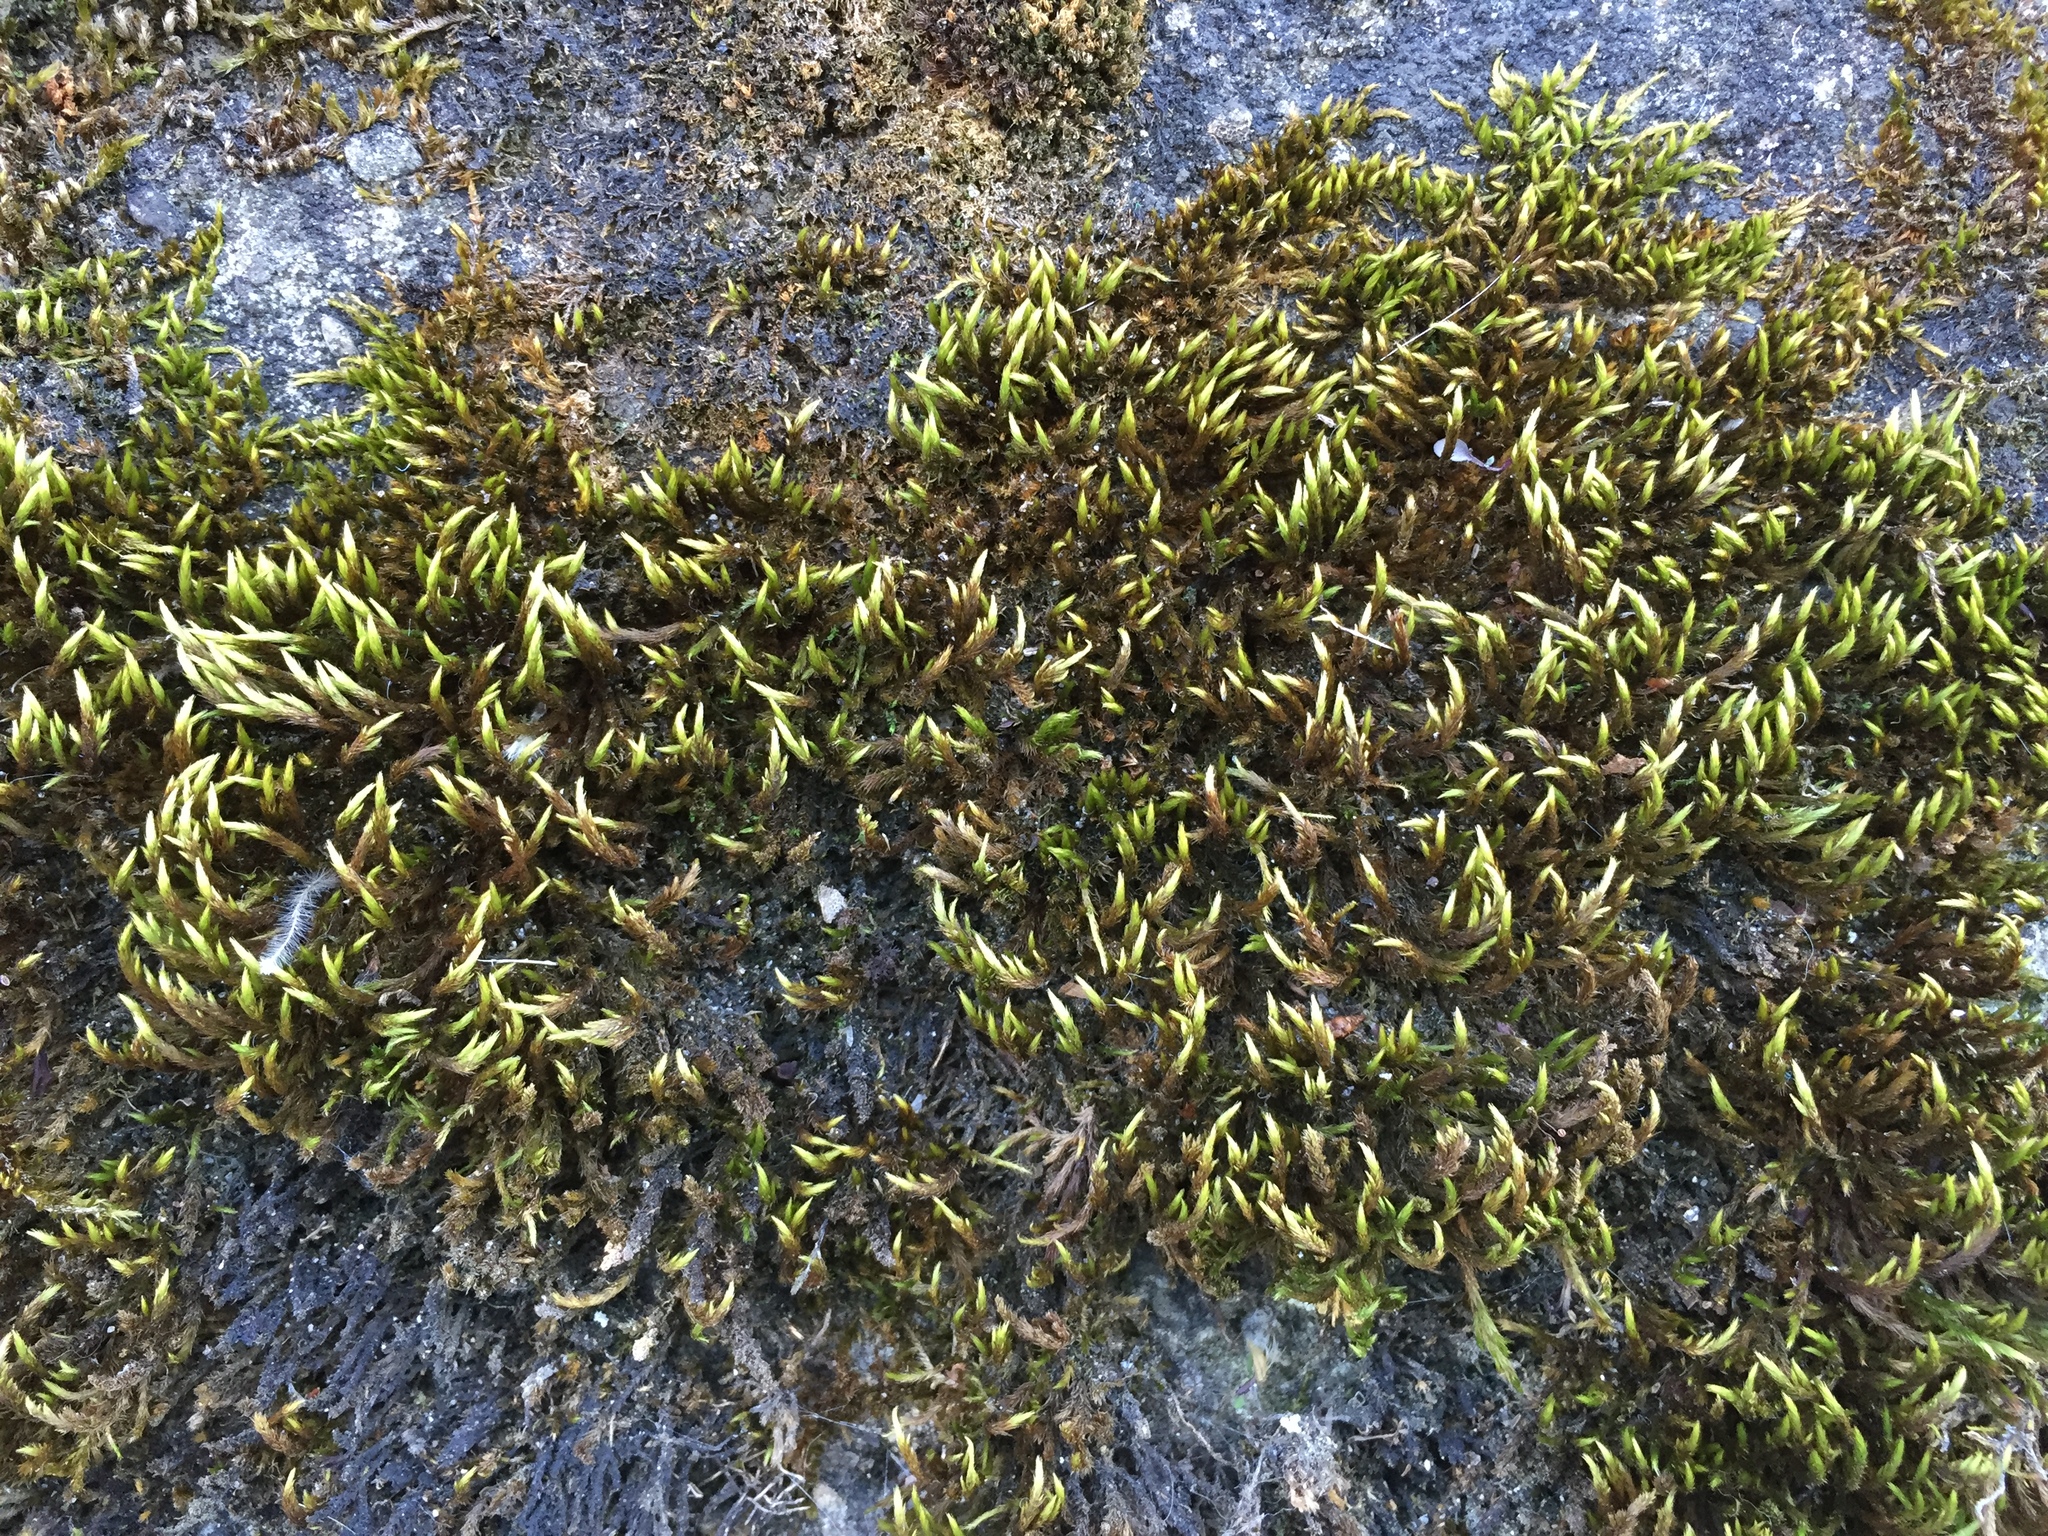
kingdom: Plantae
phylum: Bryophyta
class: Bryopsida
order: Hypnales
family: Brachytheciaceae
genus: Homalothecium
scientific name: Homalothecium sericeum
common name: Silky wall feather-moss
